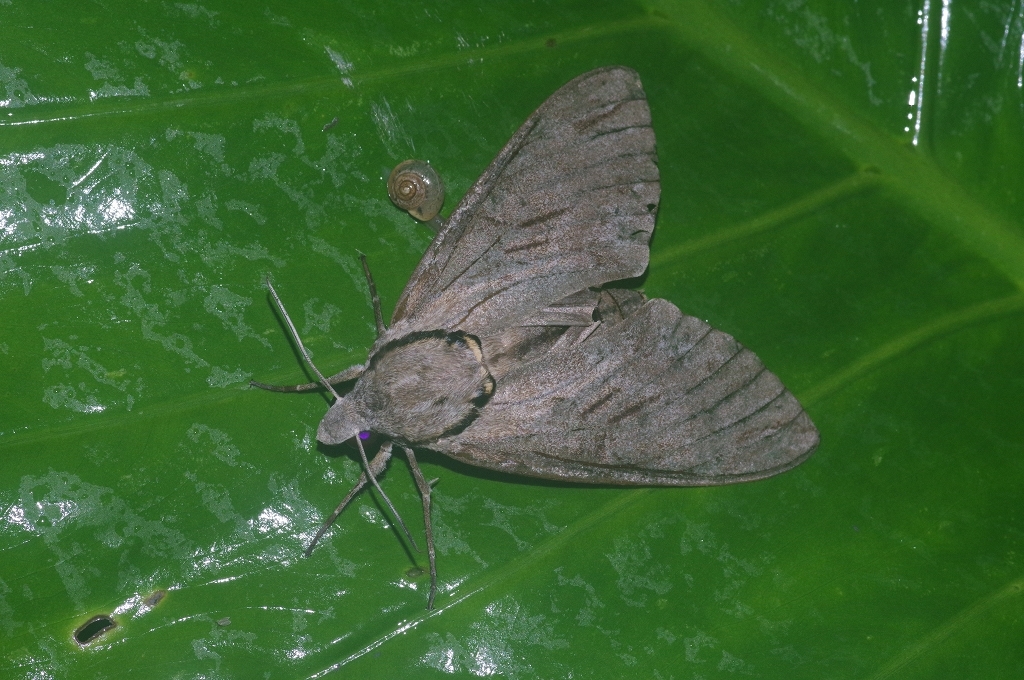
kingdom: Animalia
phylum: Arthropoda
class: Insecta
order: Lepidoptera
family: Sphingidae
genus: Psilogramma
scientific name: Psilogramma increta
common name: Gray hawk moth
